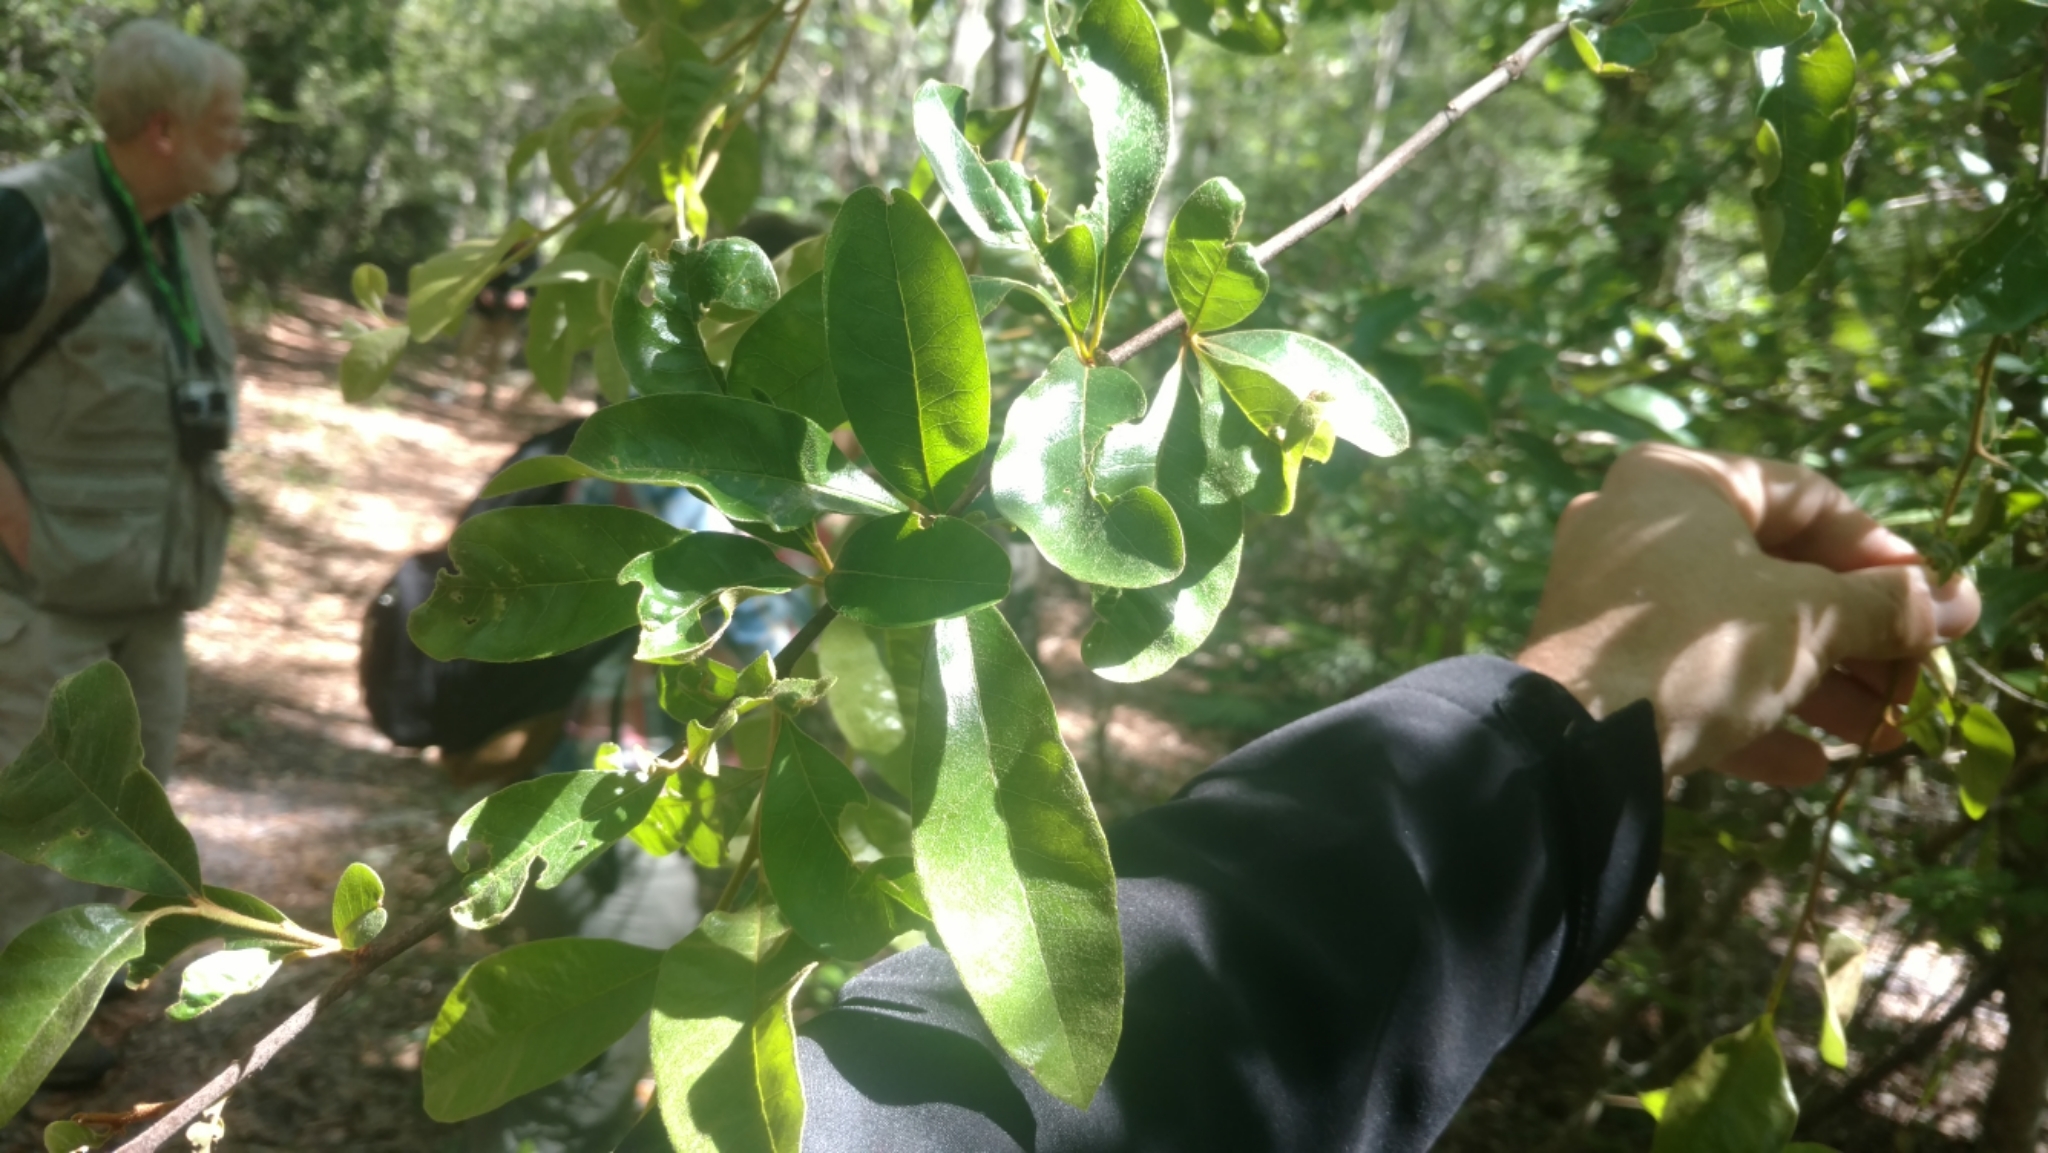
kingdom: Plantae
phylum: Tracheophyta
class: Magnoliopsida
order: Ericales
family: Sapotaceae
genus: Sideroxylon
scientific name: Sideroxylon lanuginosum
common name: Chittamwood
